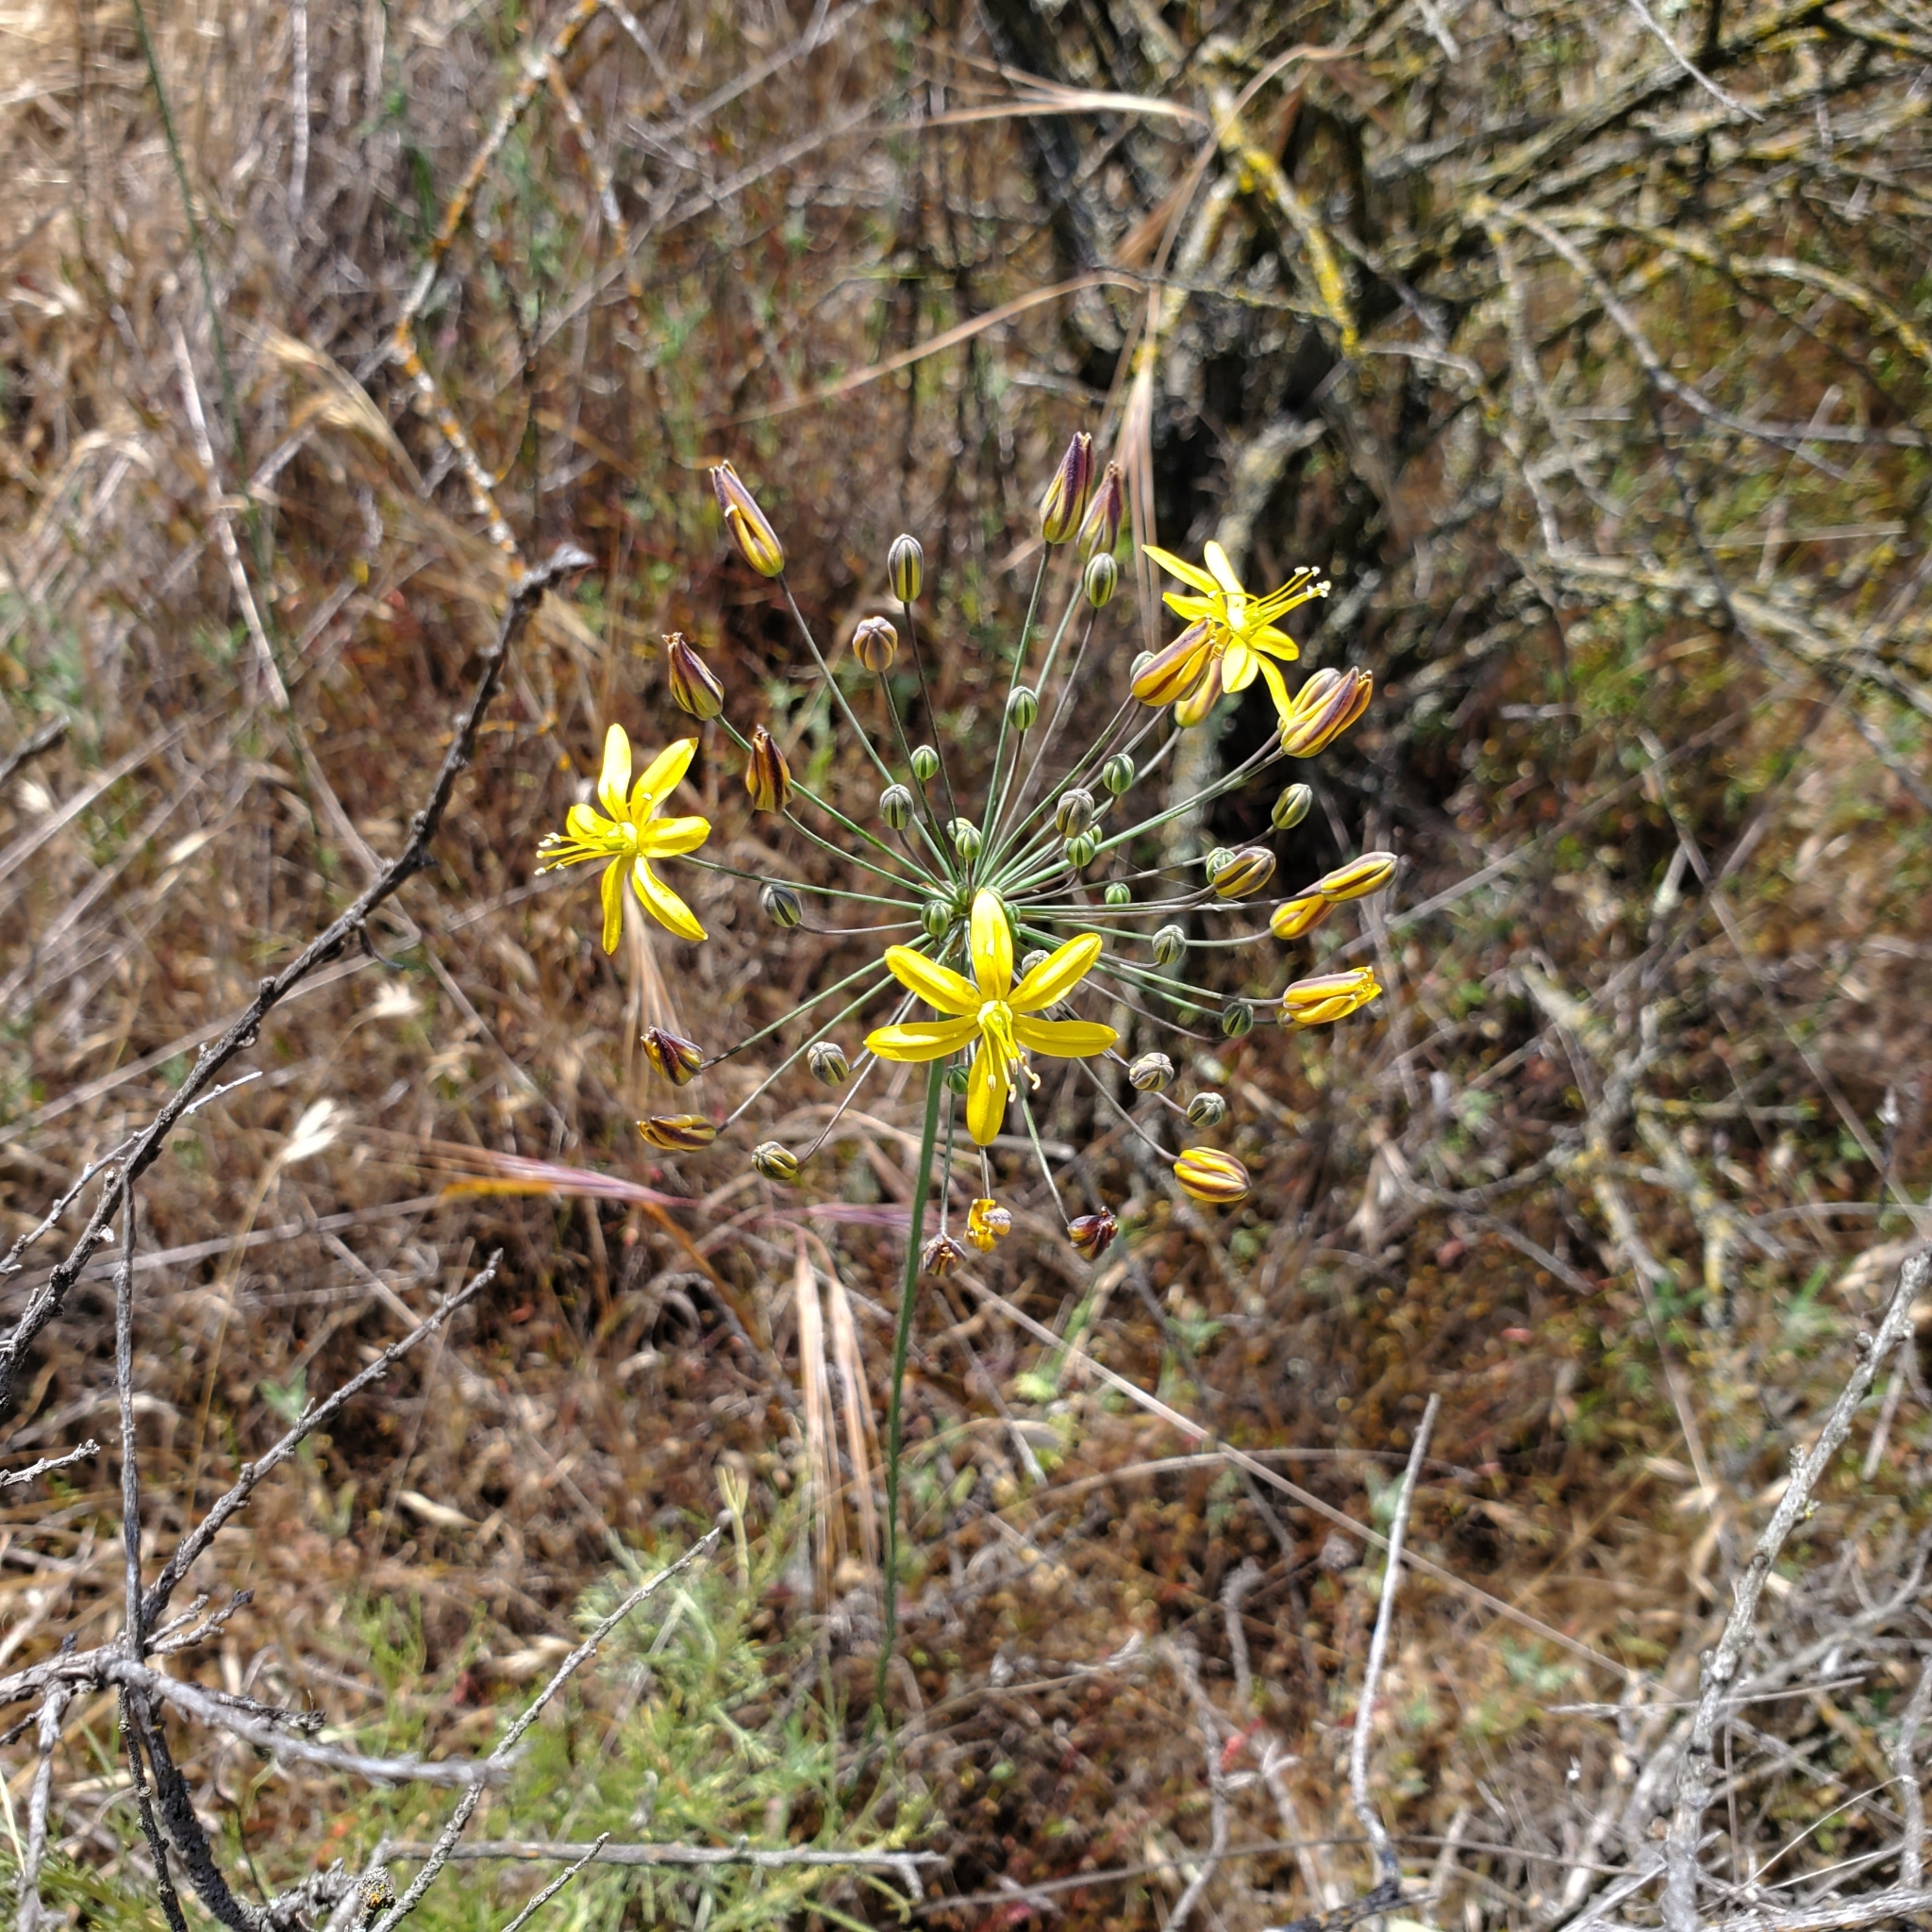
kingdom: Plantae
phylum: Tracheophyta
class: Liliopsida
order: Asparagales
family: Asparagaceae
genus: Bloomeria
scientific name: Bloomeria crocea
